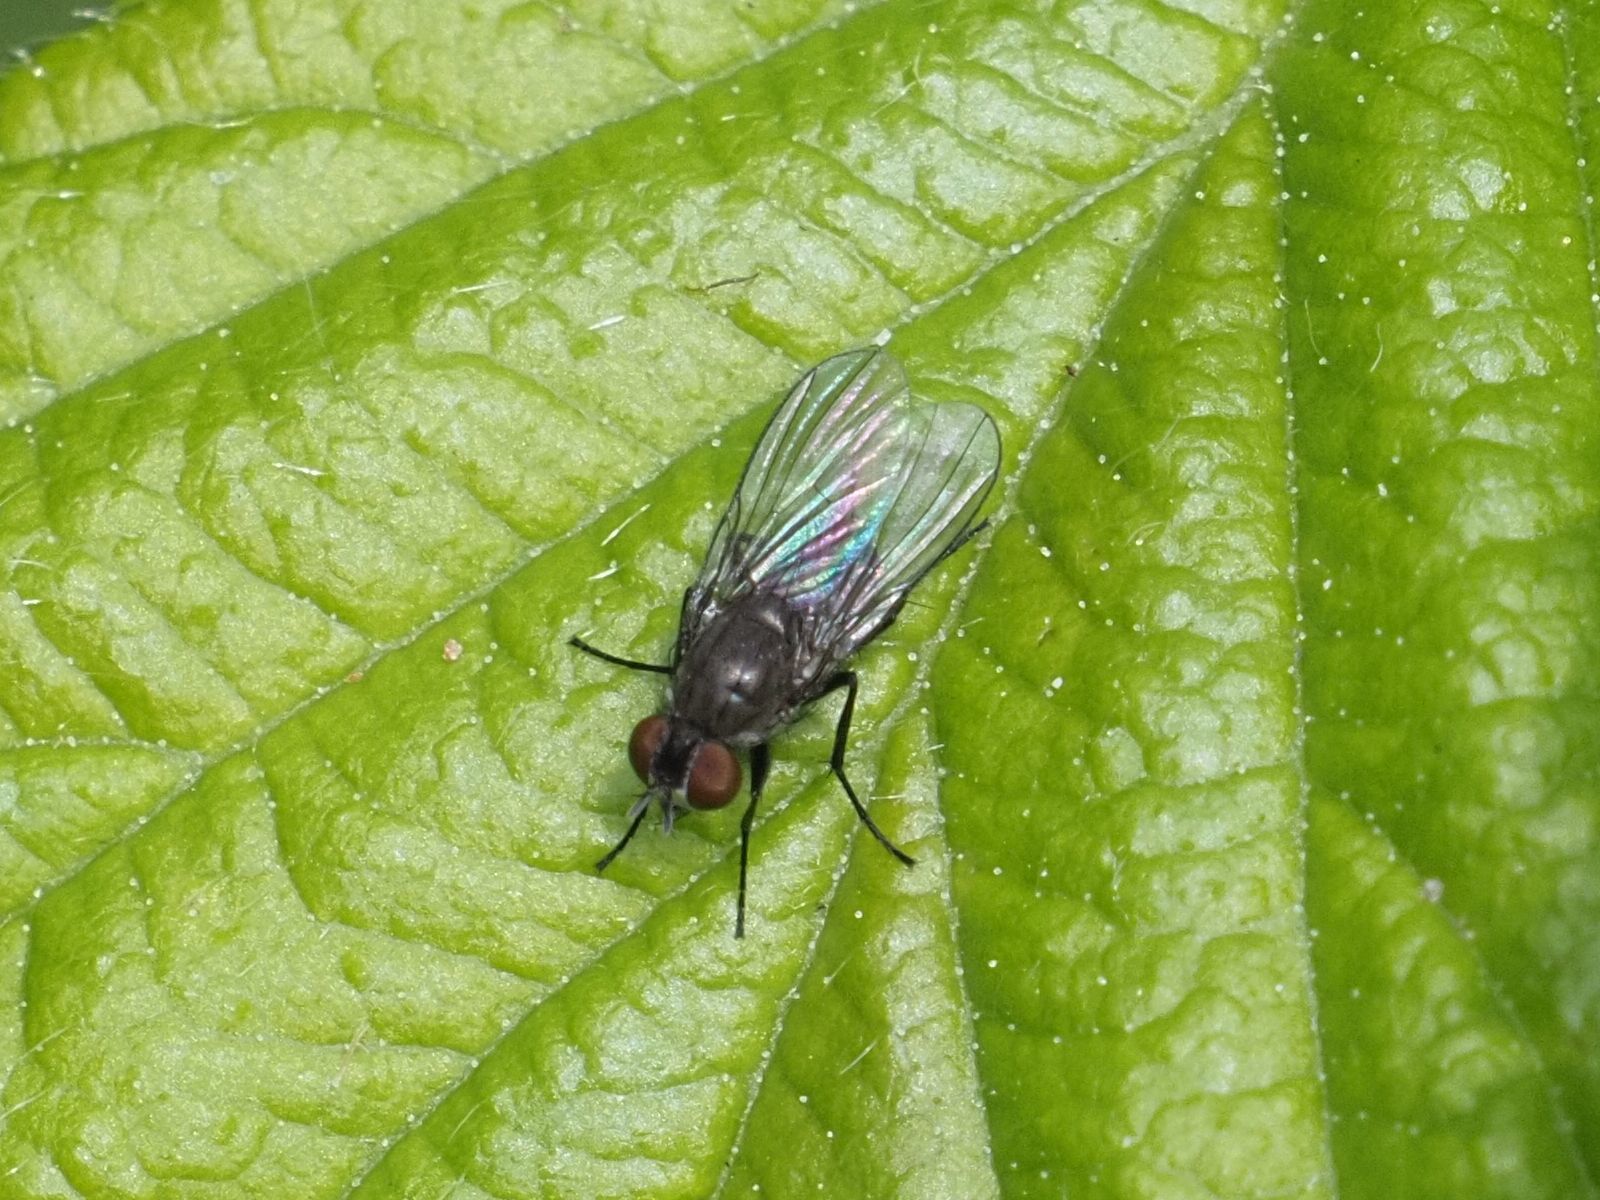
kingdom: Animalia
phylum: Arthropoda
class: Insecta
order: Diptera
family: Muscidae
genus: Coenosia
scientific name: Coenosia agromyzina
